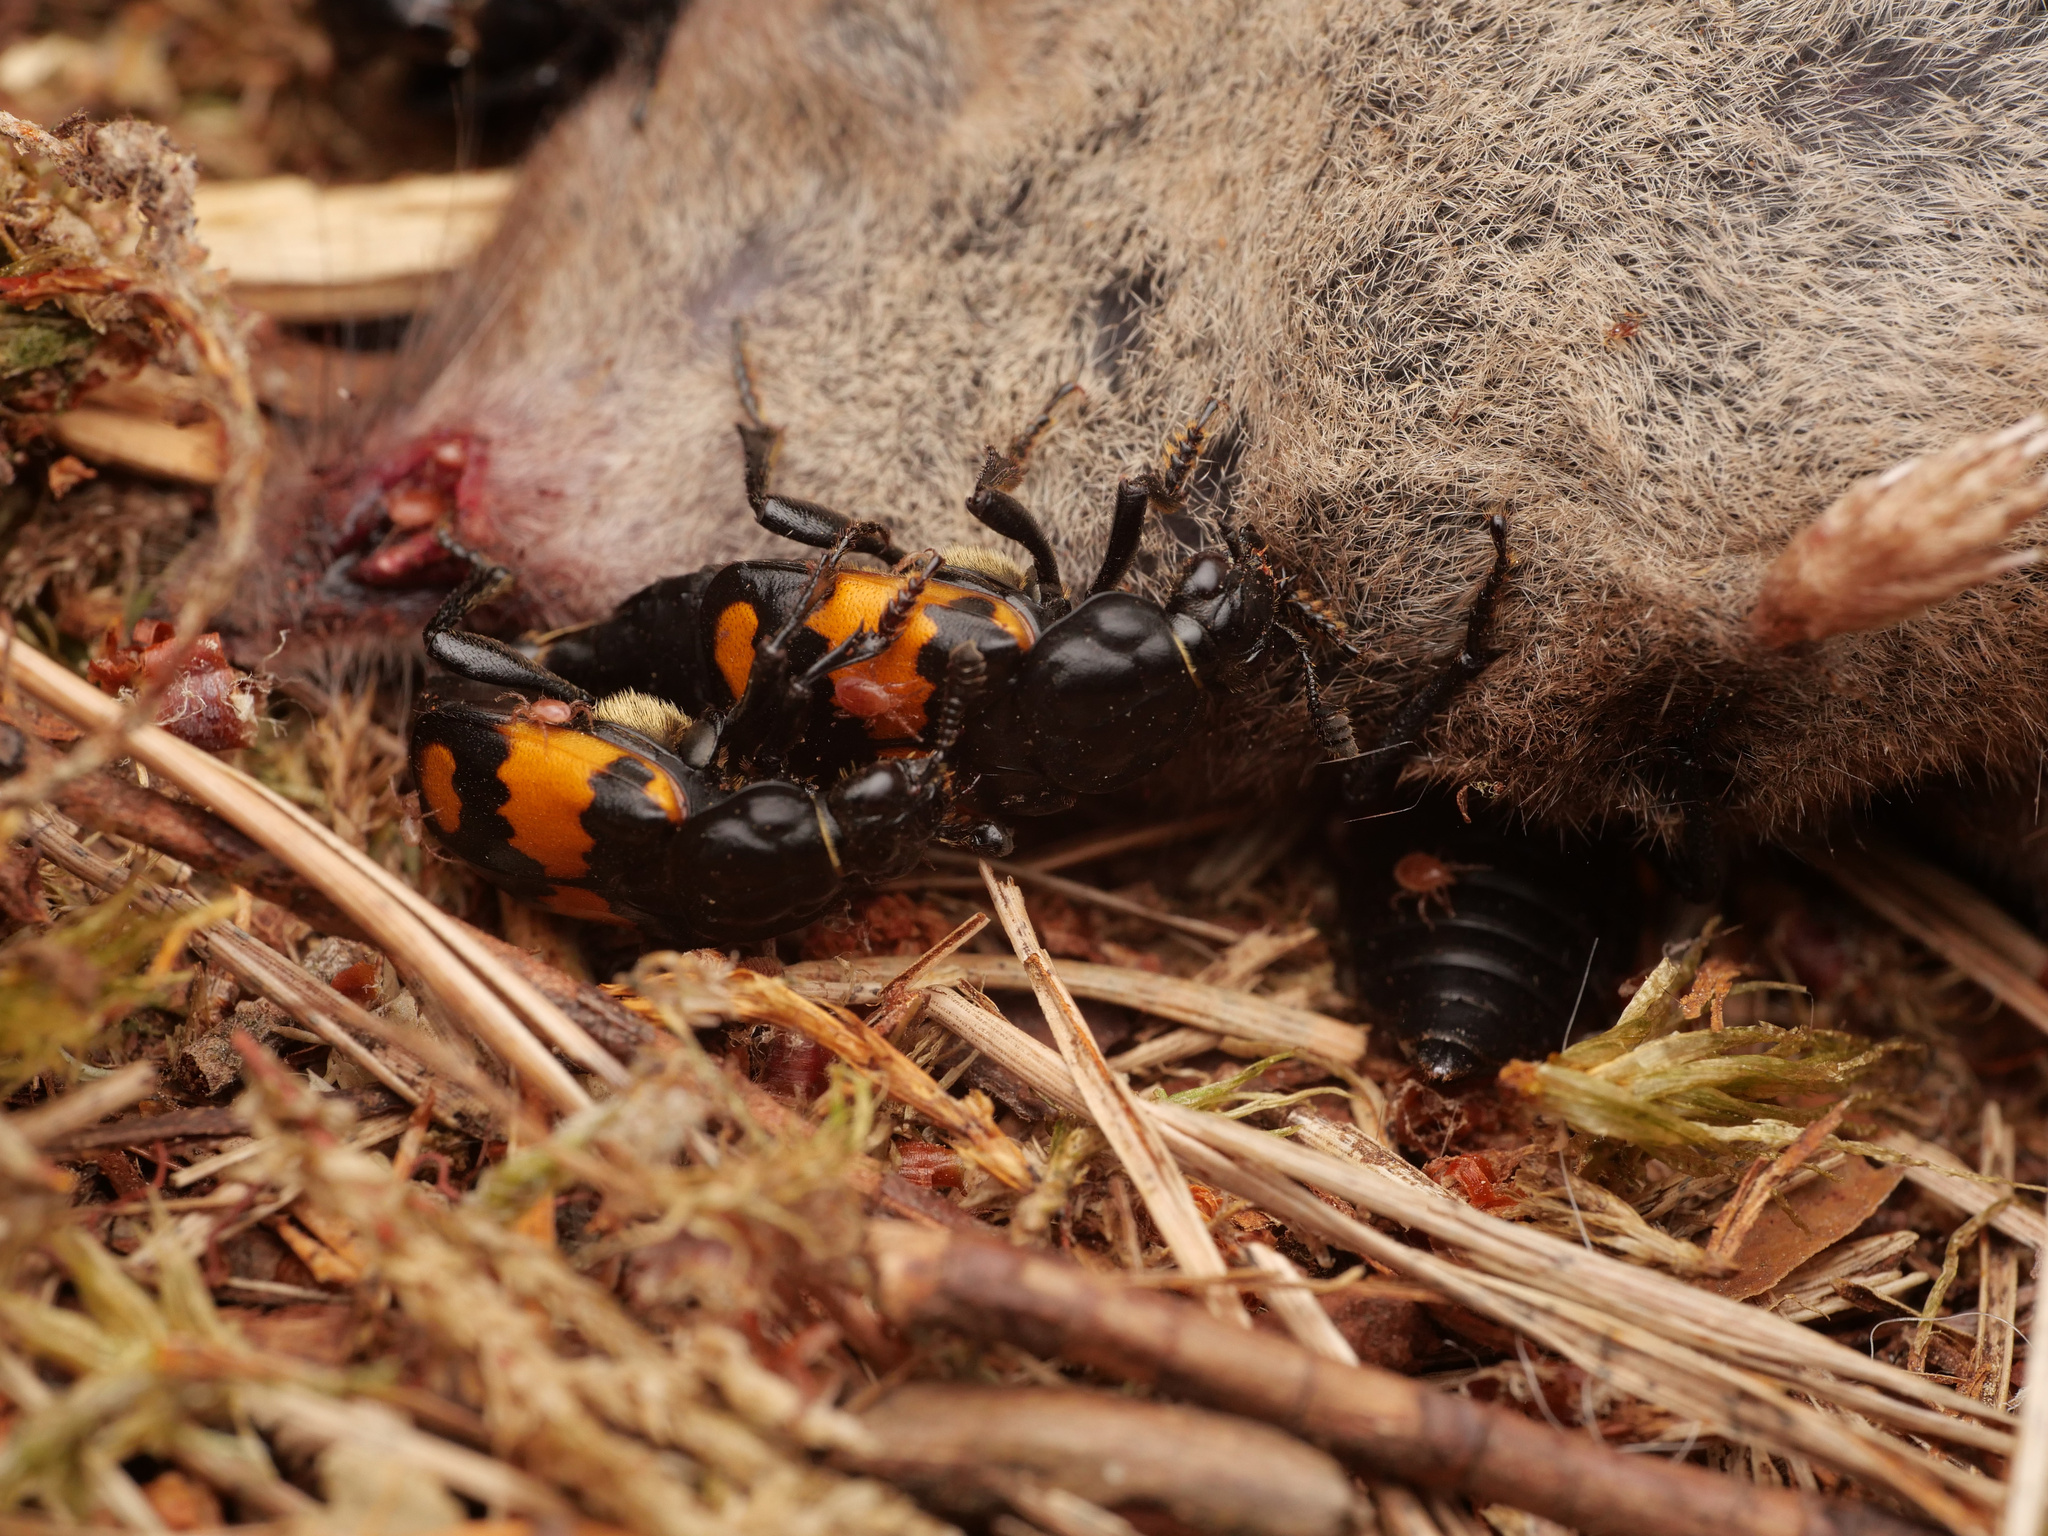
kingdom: Animalia
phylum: Arthropoda
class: Insecta
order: Coleoptera
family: Staphylinidae
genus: Nicrophorus
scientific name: Nicrophorus vespilloides
